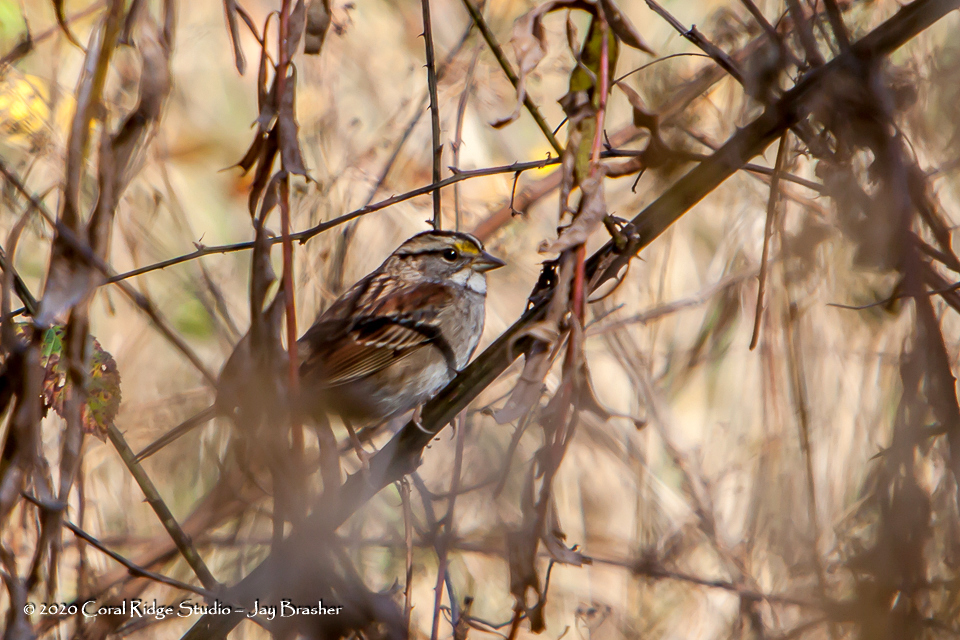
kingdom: Animalia
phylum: Chordata
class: Aves
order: Passeriformes
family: Passerellidae
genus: Zonotrichia
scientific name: Zonotrichia albicollis
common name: White-throated sparrow
